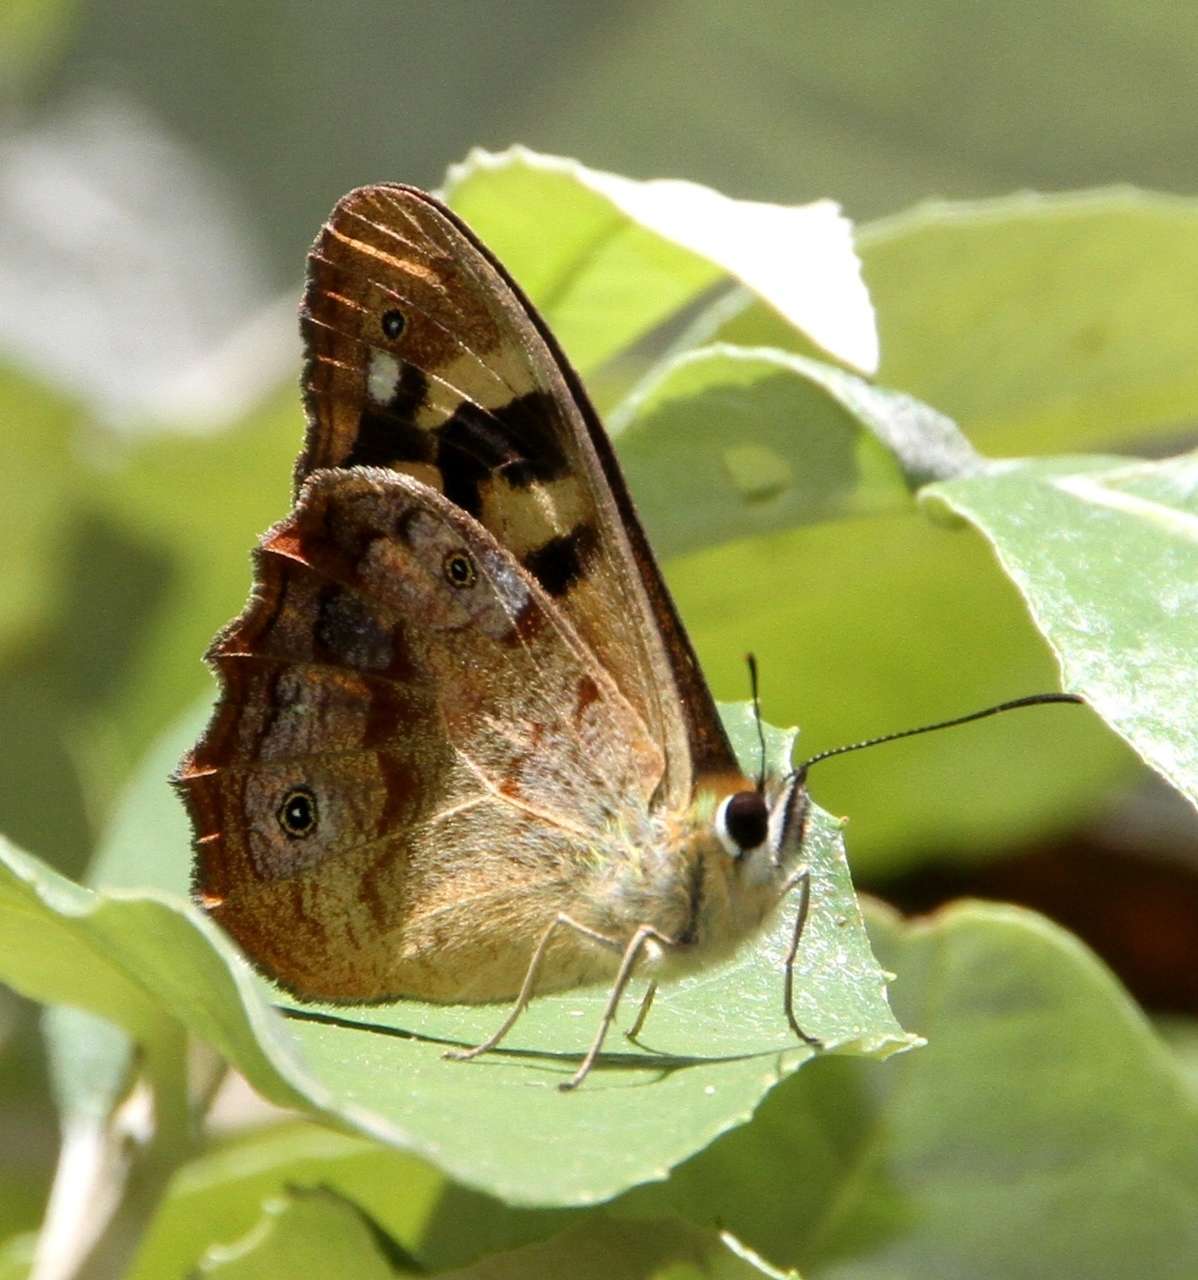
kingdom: Animalia
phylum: Arthropoda
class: Insecta
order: Lepidoptera
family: Nymphalidae
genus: Heteronympha
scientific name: Heteronympha banksii
